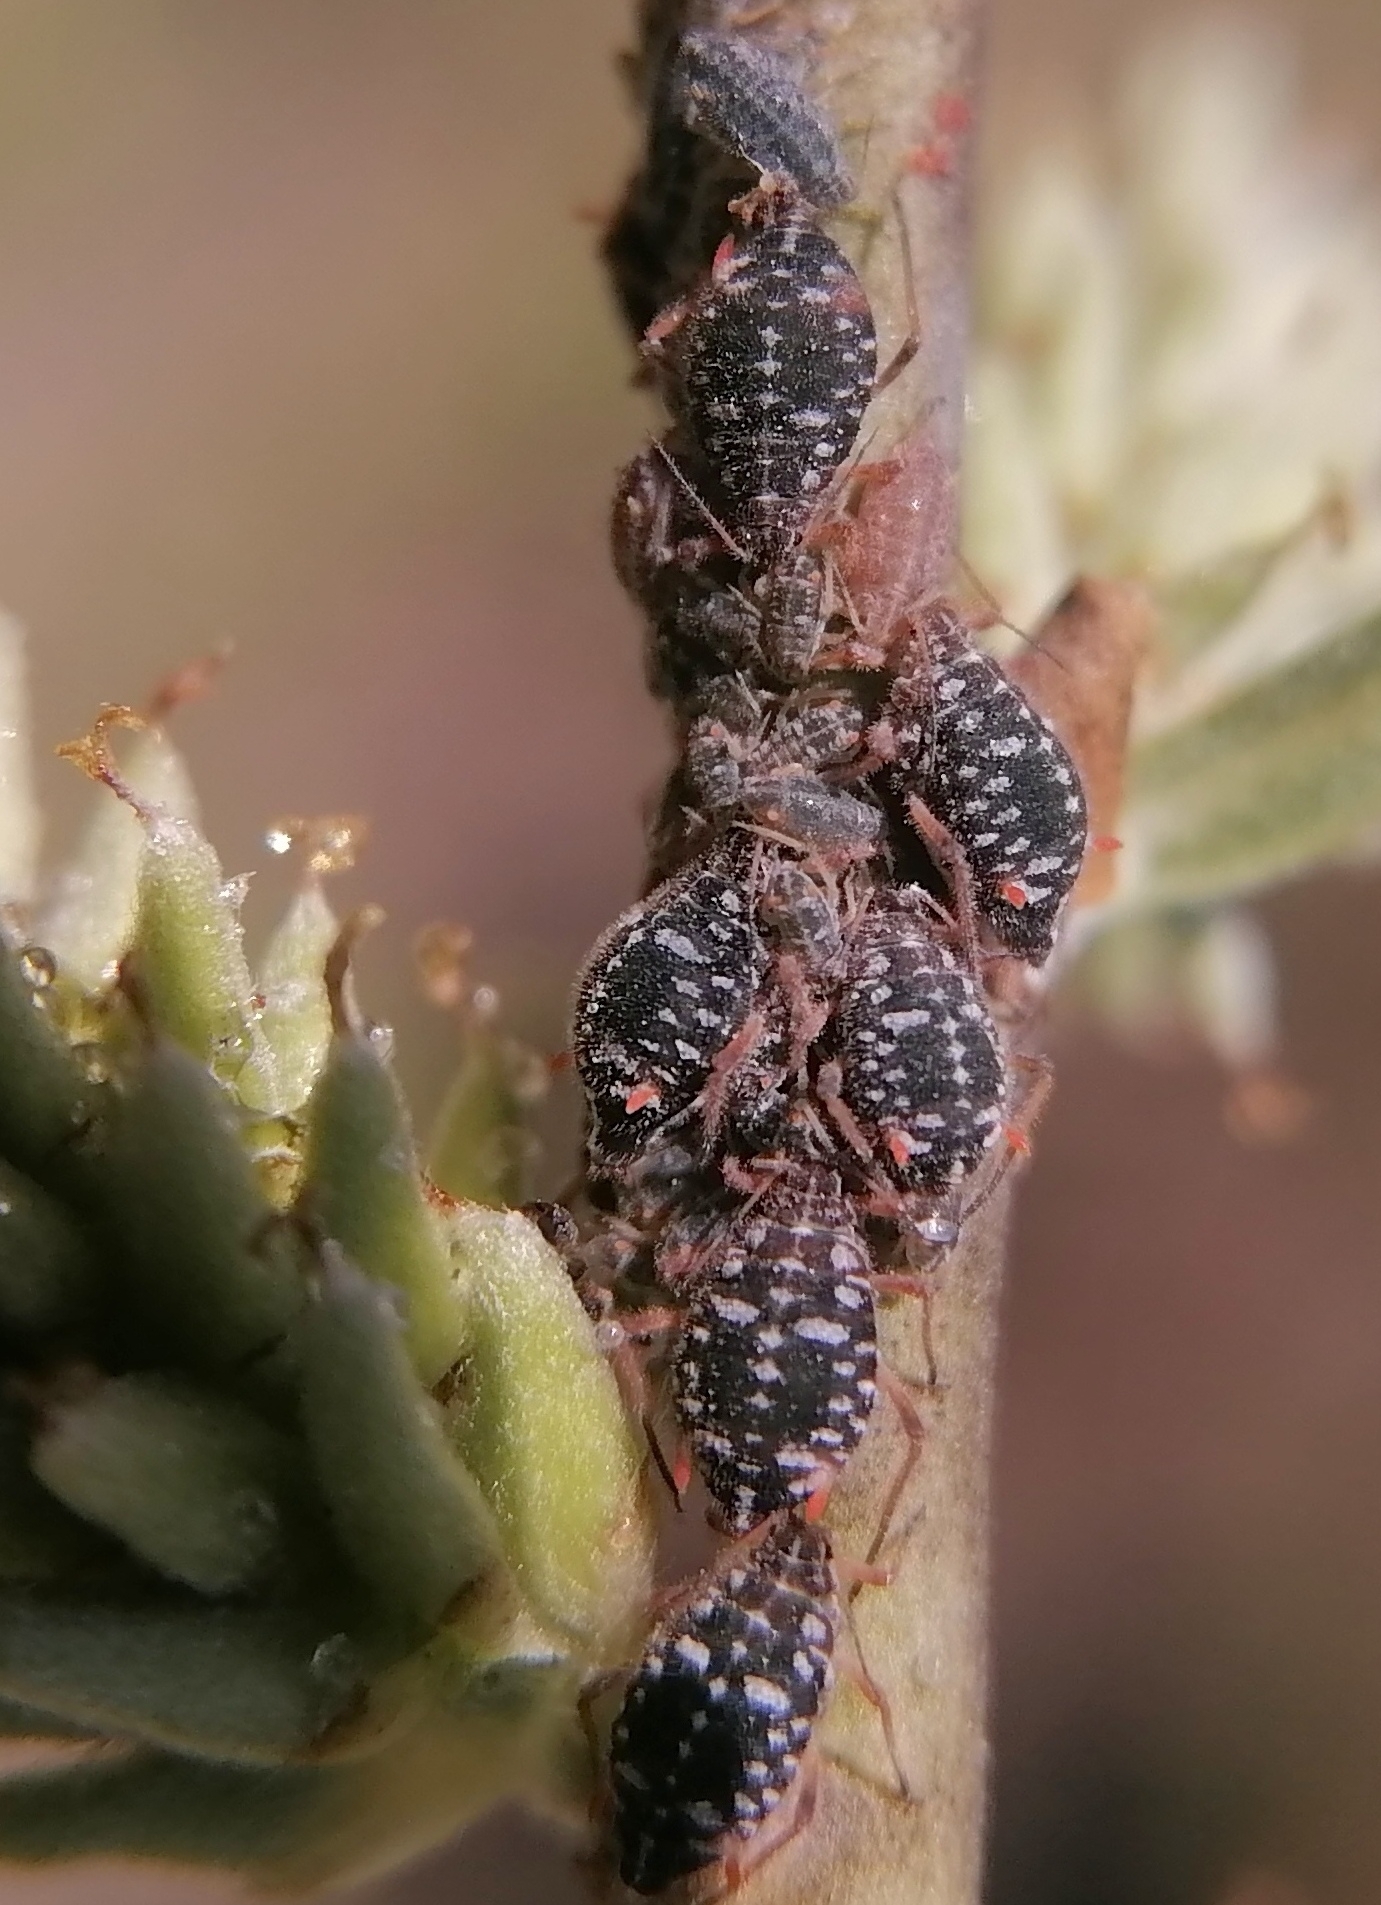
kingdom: Animalia
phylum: Arthropoda
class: Insecta
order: Hemiptera
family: Aphididae
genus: Pterocomma
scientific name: Pterocomma salicis
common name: Aphid
